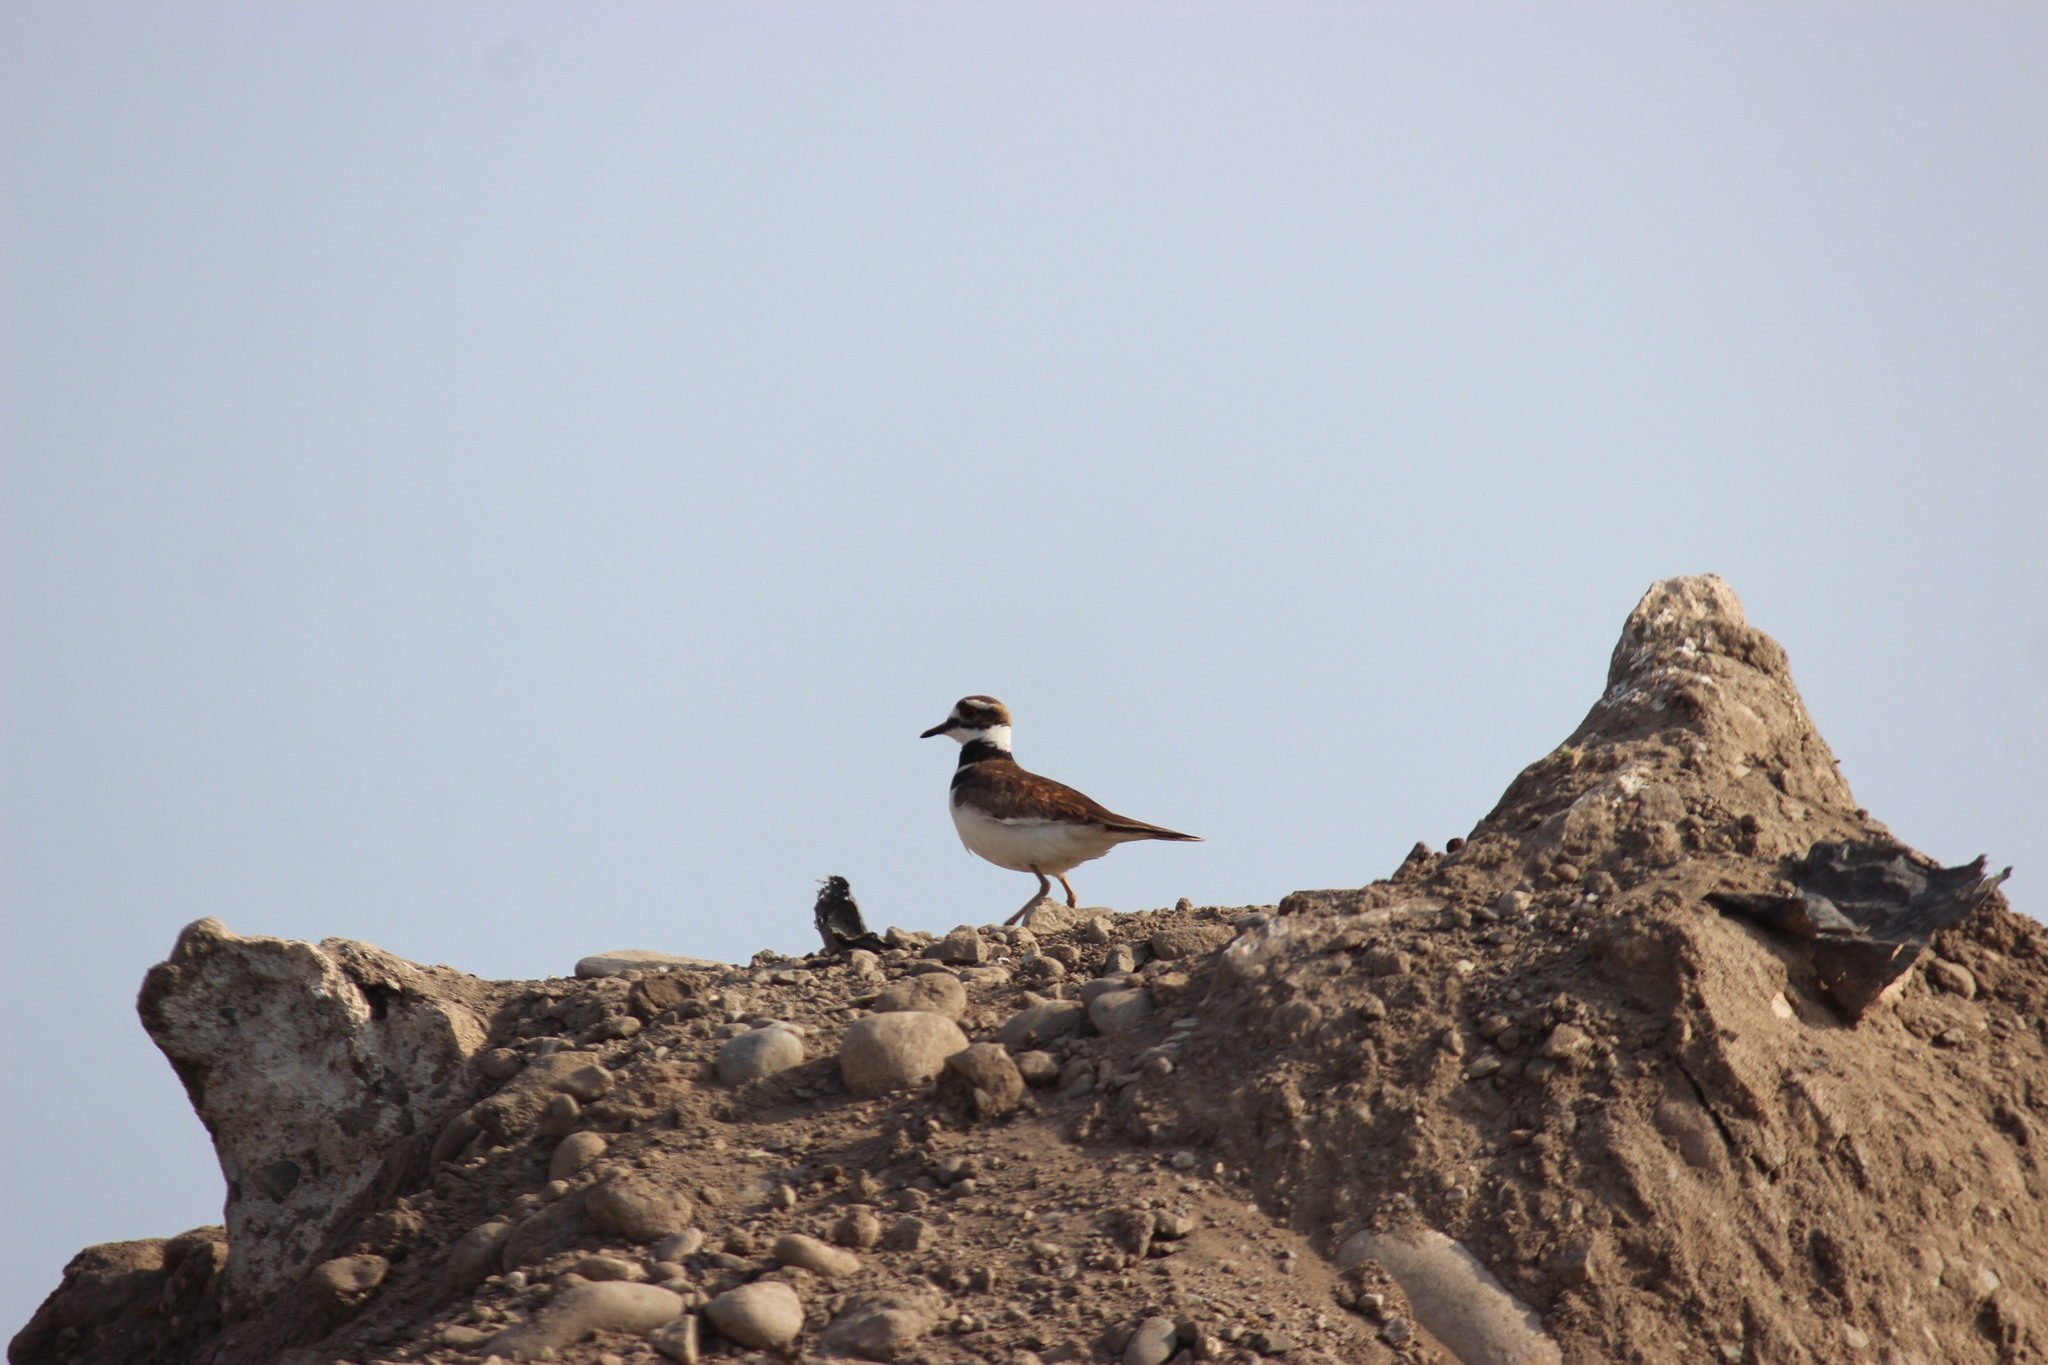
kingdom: Animalia
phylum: Chordata
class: Aves
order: Charadriiformes
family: Charadriidae
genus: Charadrius
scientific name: Charadrius vociferus
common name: Killdeer
